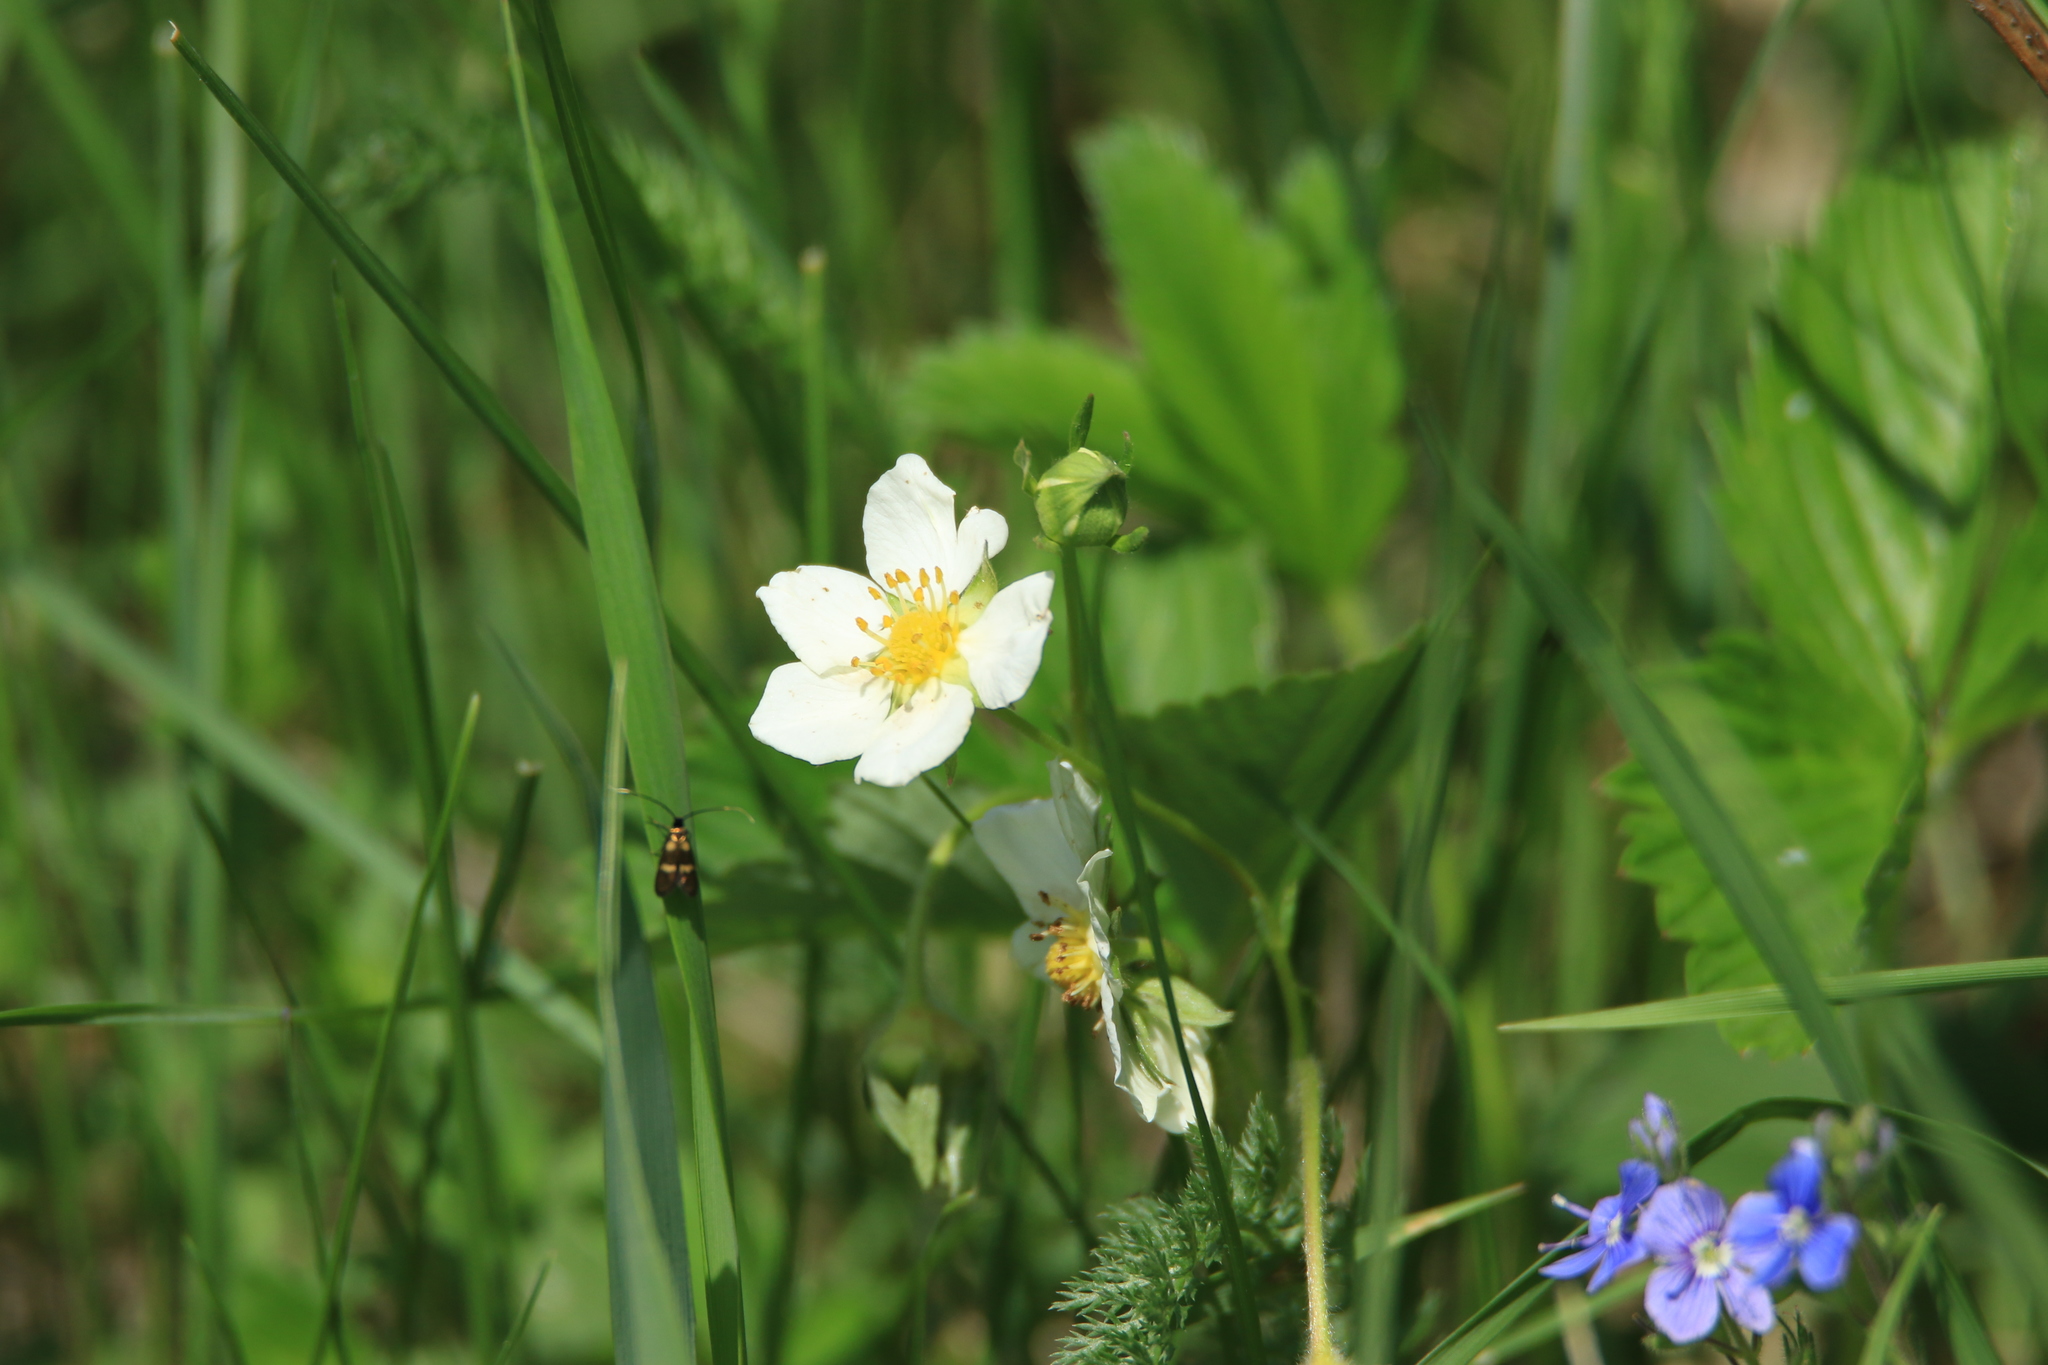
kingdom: Plantae
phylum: Tracheophyta
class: Magnoliopsida
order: Rosales
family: Rosaceae
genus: Fragaria
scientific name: Fragaria vesca
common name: Wild strawberry
